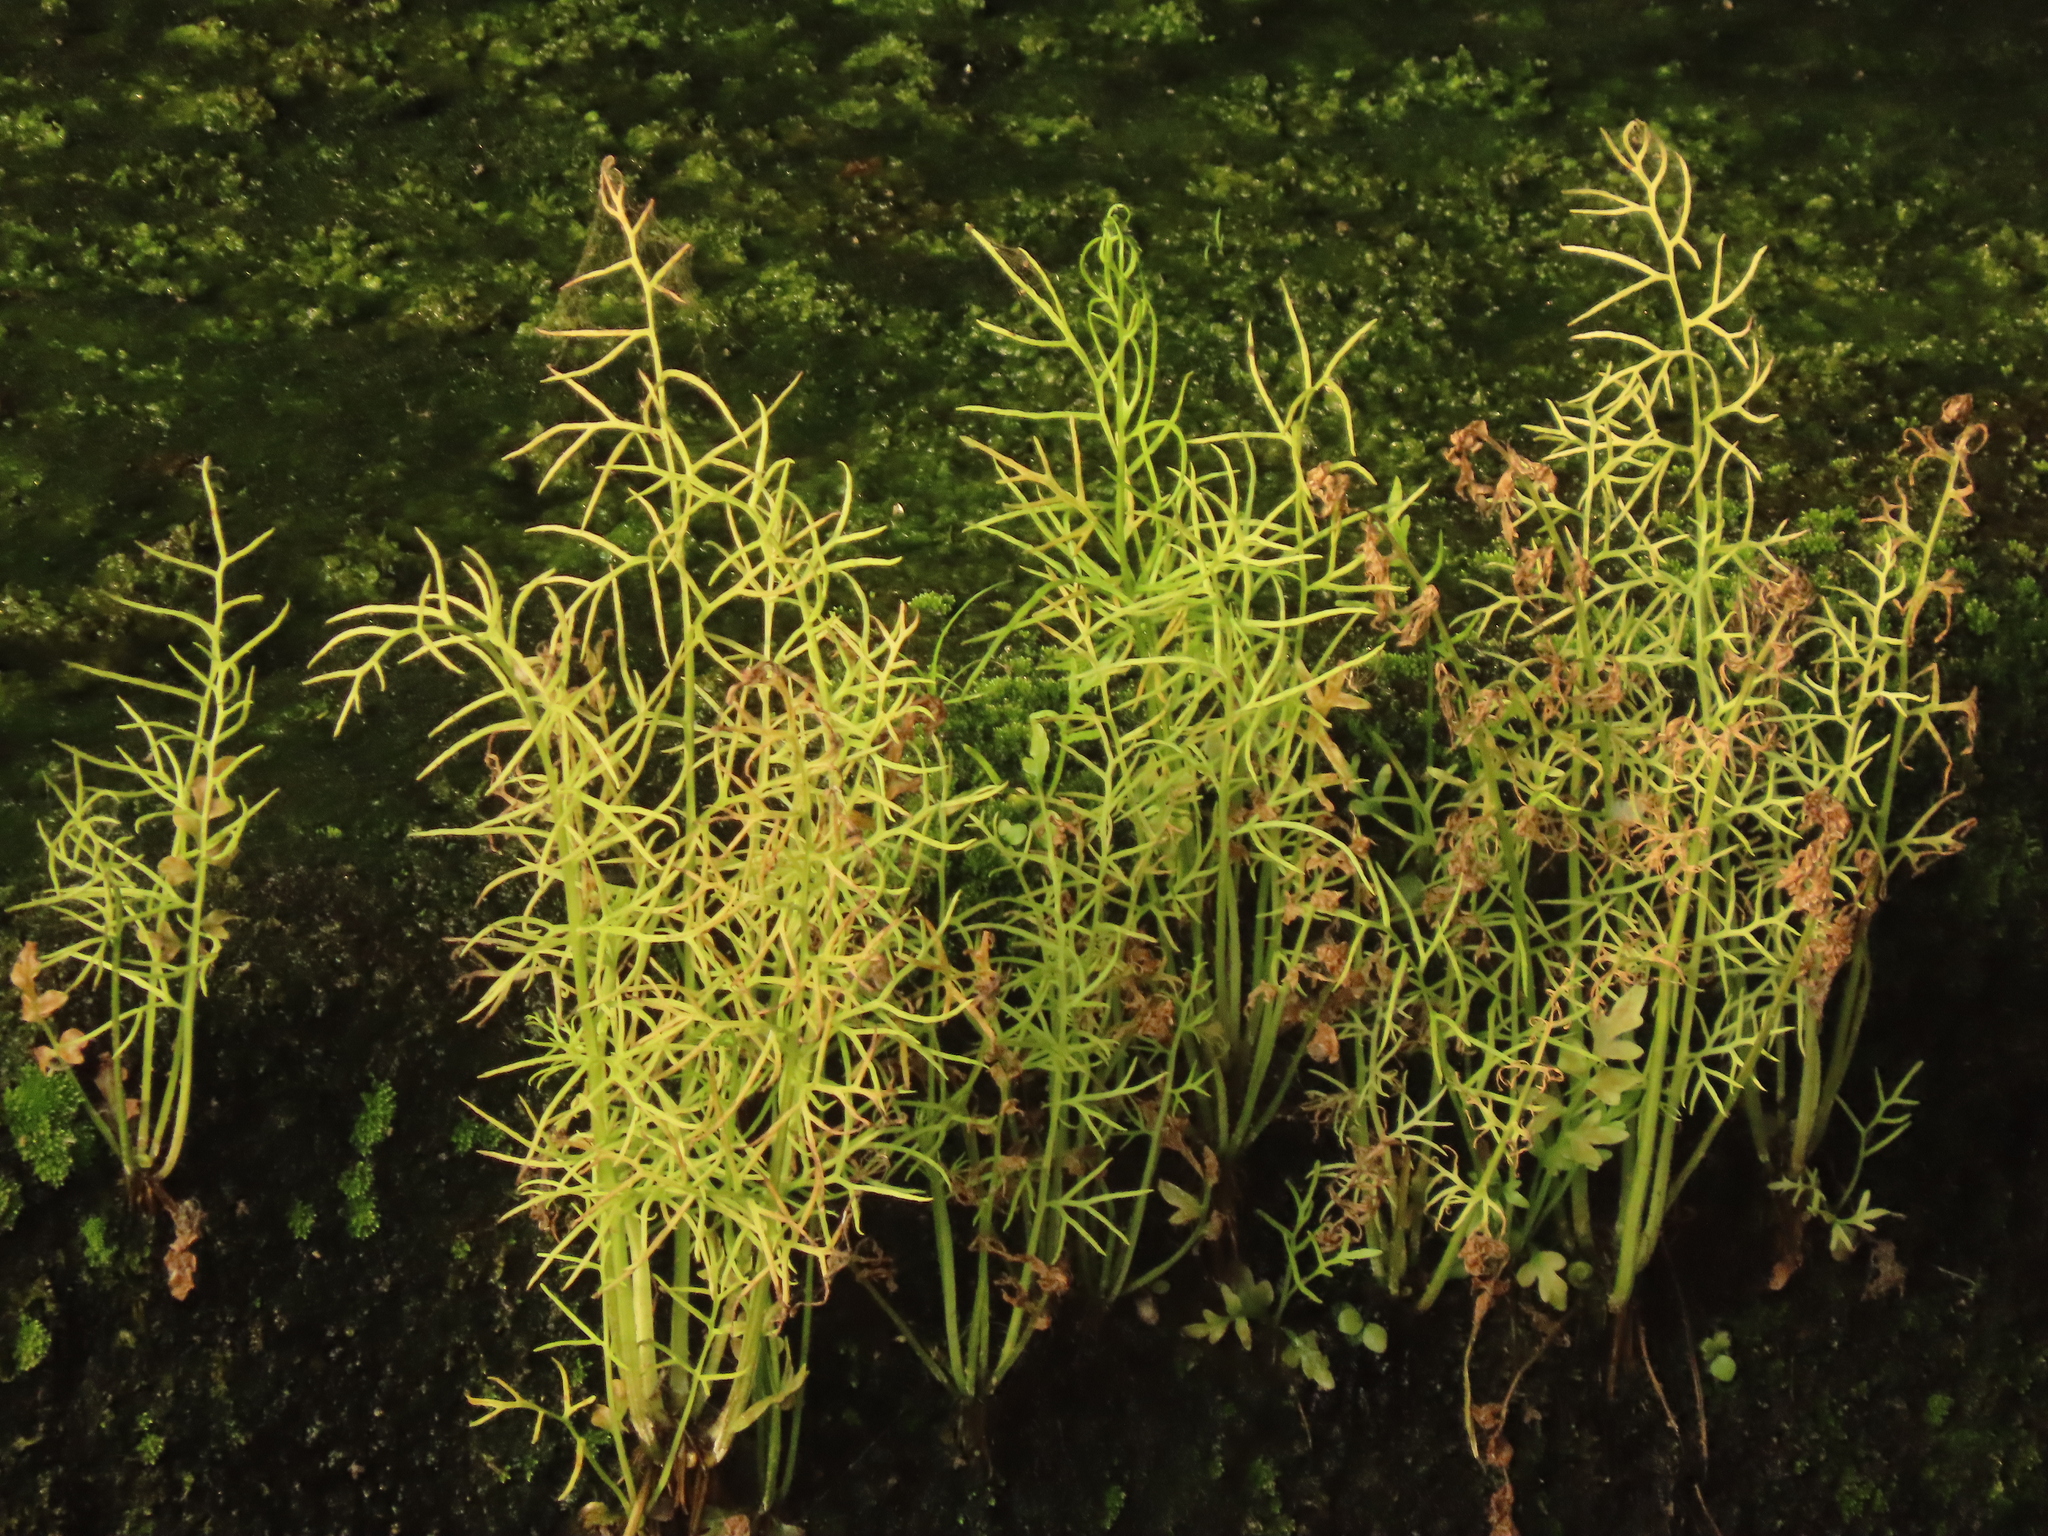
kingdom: Plantae
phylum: Tracheophyta
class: Polypodiopsida
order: Polypodiales
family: Pteridaceae
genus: Ceratopteris
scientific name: Ceratopteris thalictroides
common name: Water fern
